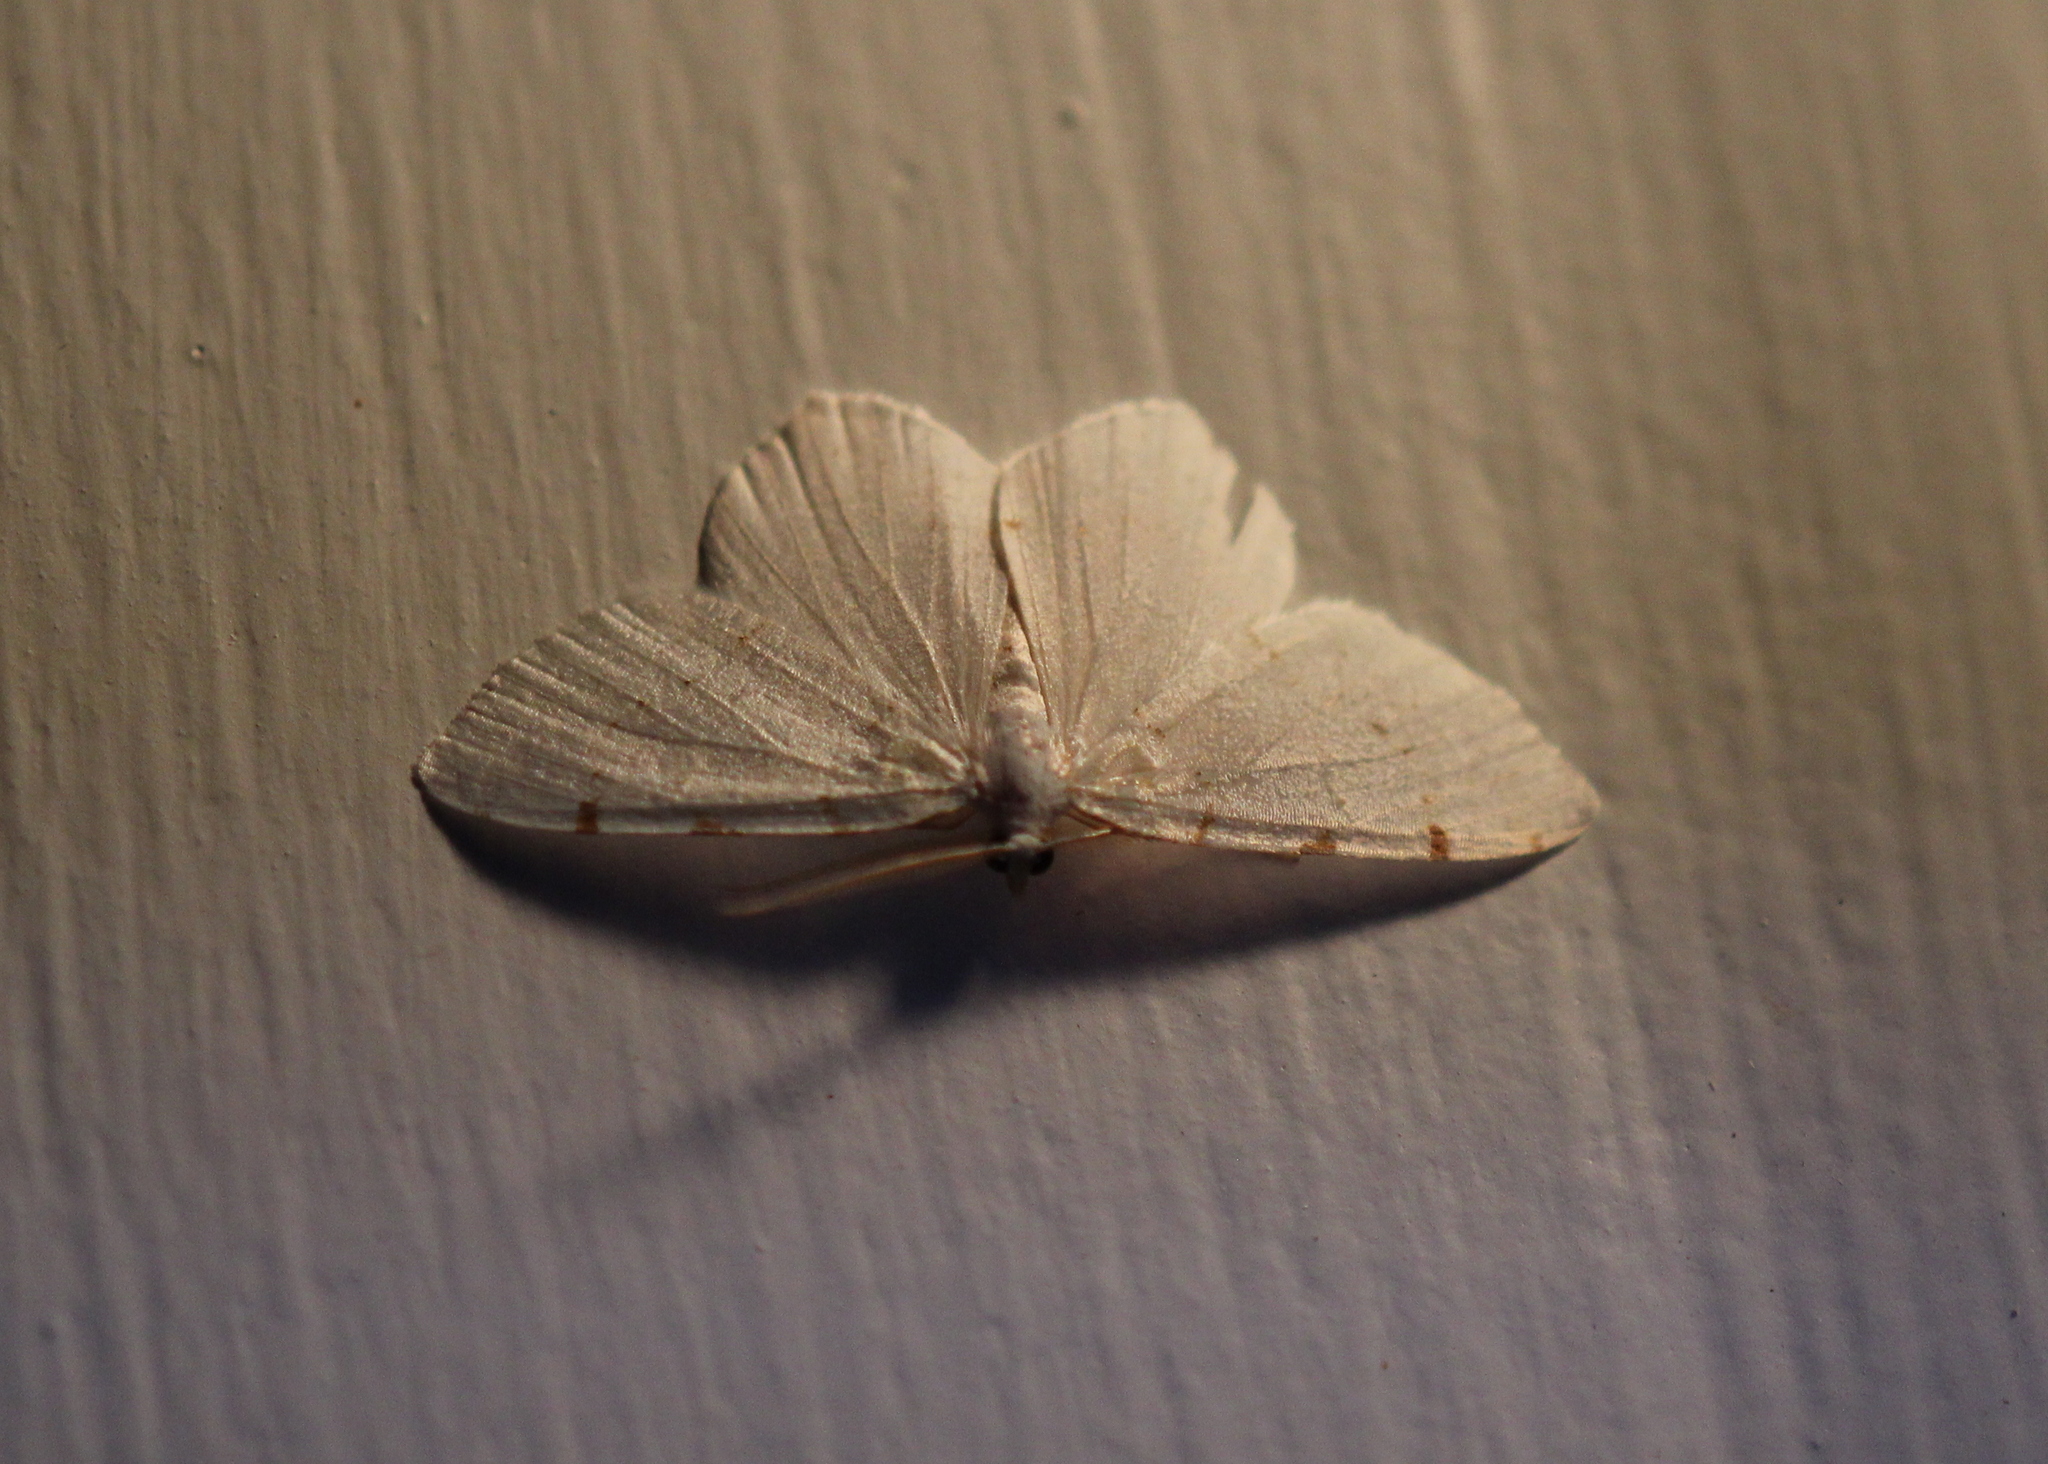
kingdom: Animalia
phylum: Arthropoda
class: Insecta
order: Lepidoptera
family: Geometridae
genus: Macaria
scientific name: Macaria pustularia
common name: Lesser maple spanworm moth
